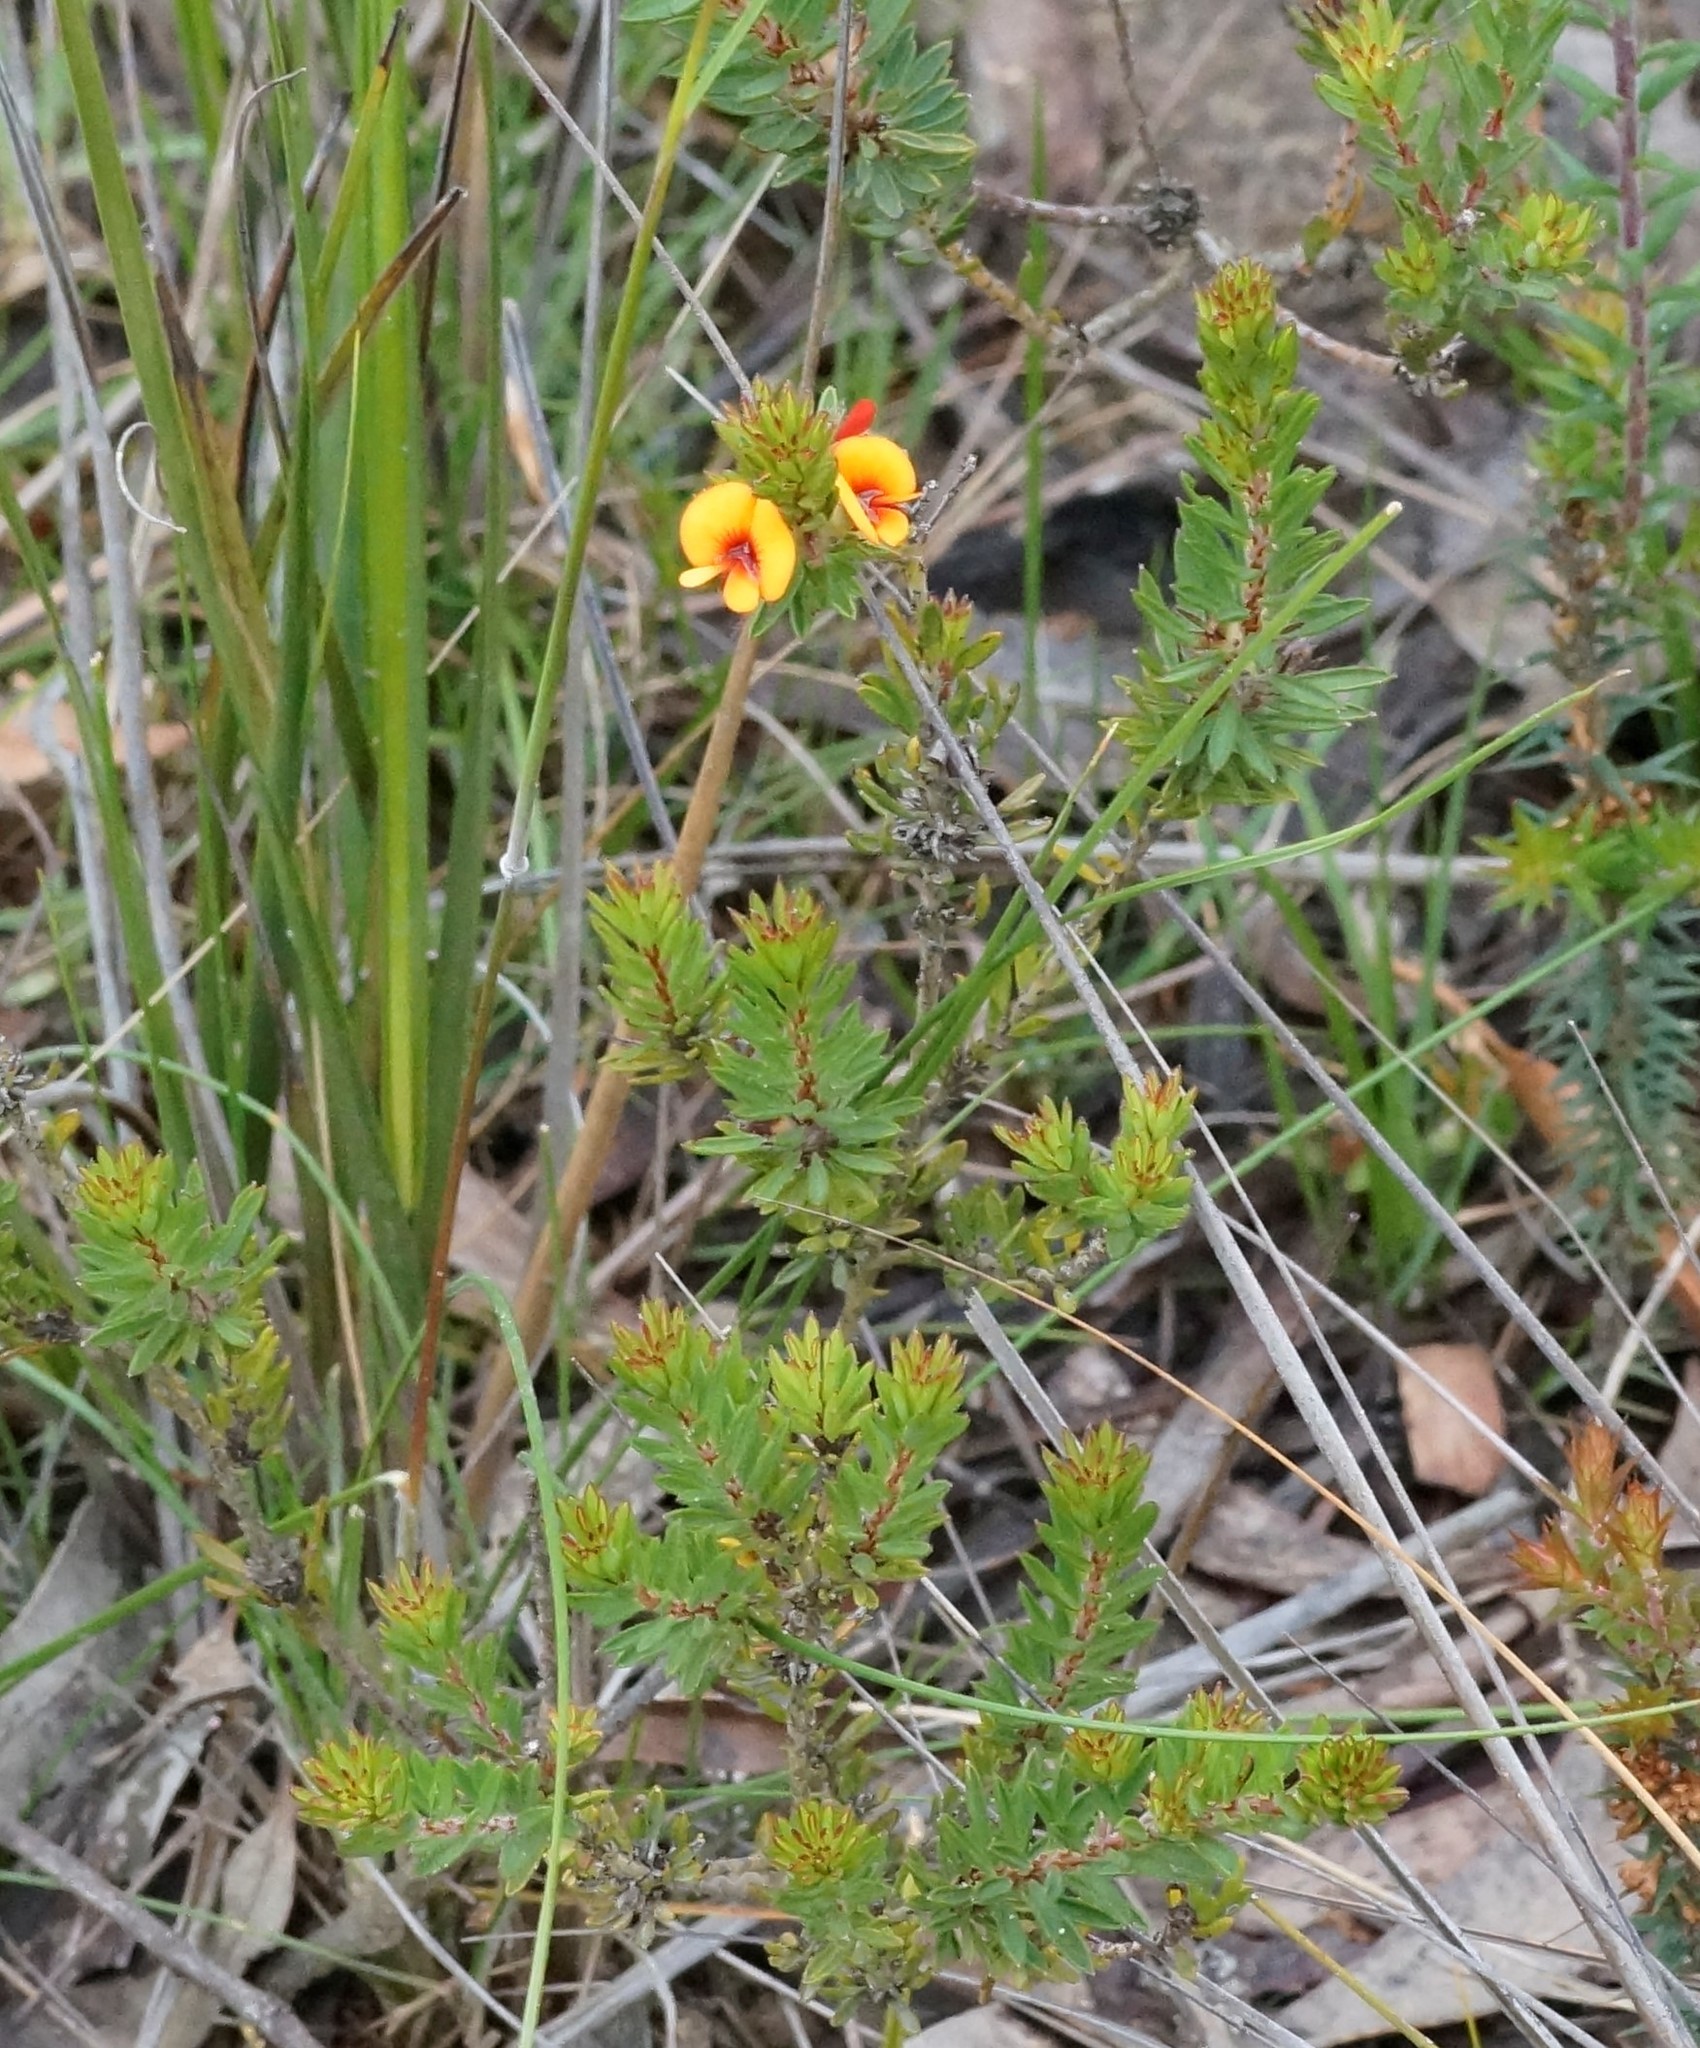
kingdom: Plantae
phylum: Tracheophyta
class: Magnoliopsida
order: Fabales
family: Fabaceae
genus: Pultenaea
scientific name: Pultenaea humilis
